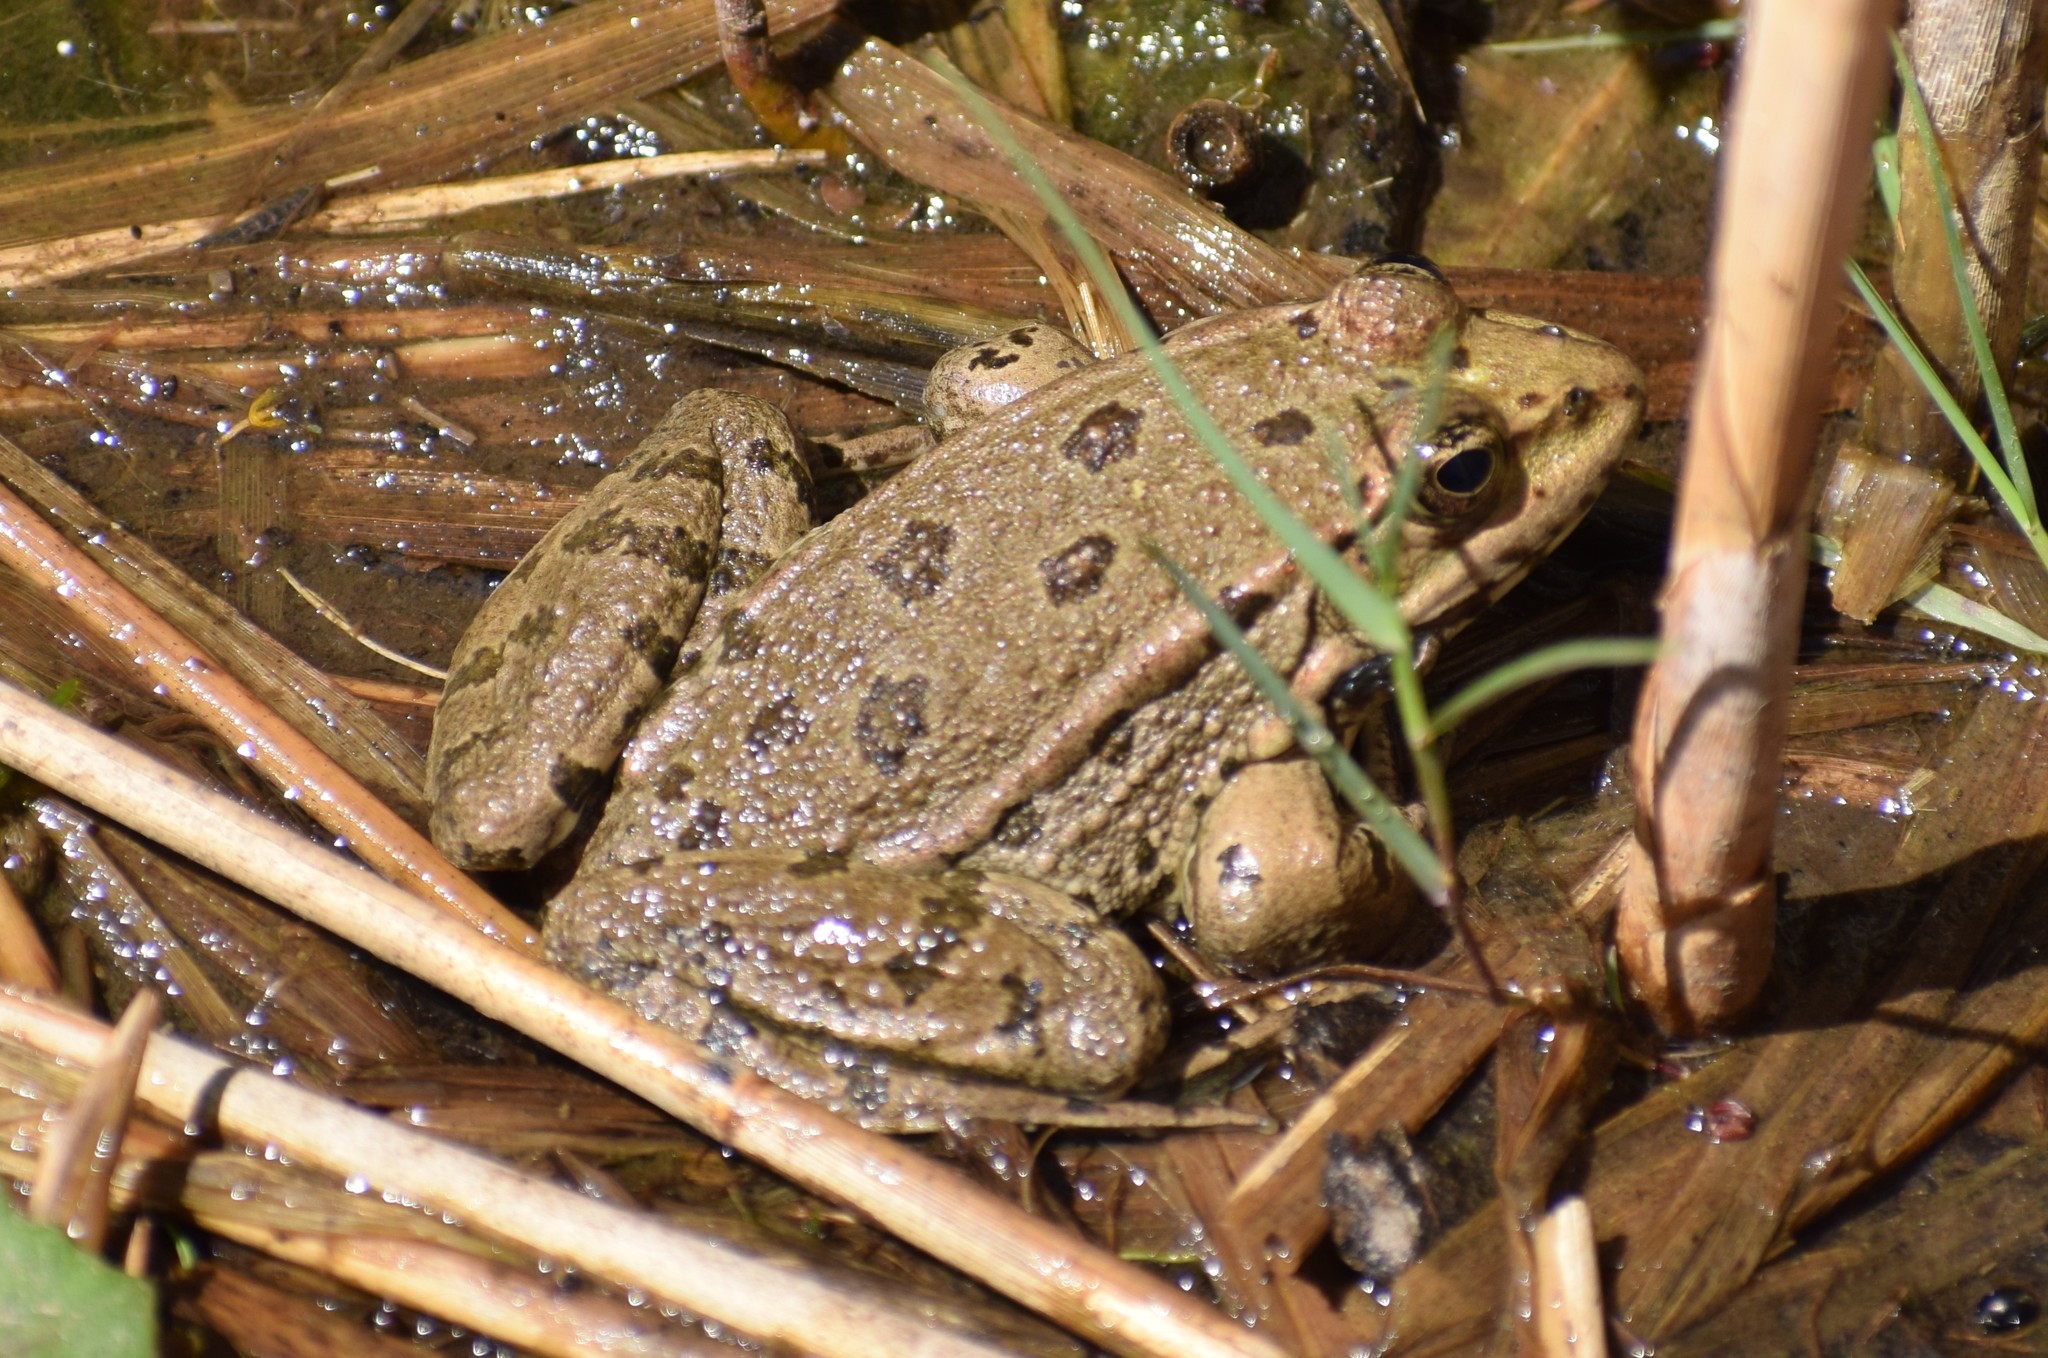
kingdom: Animalia
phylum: Chordata
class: Amphibia
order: Anura
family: Ranidae
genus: Pelophylax
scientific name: Pelophylax
